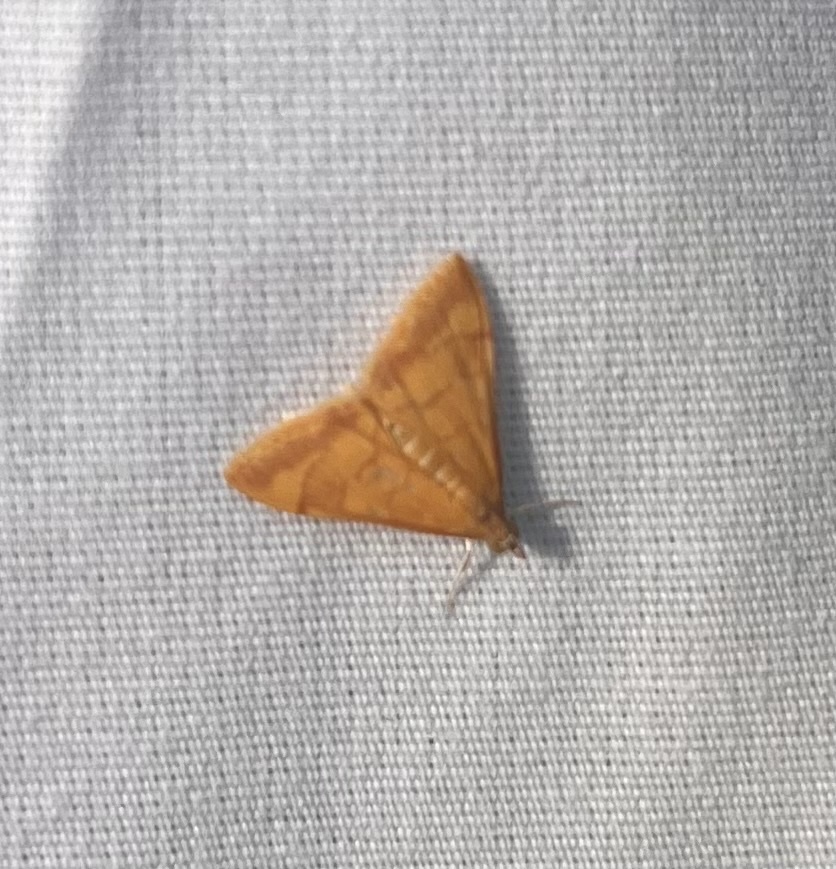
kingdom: Animalia
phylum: Arthropoda
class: Insecta
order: Lepidoptera
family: Crambidae
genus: Pyrausta
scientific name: Pyrausta pseudonythesalis
